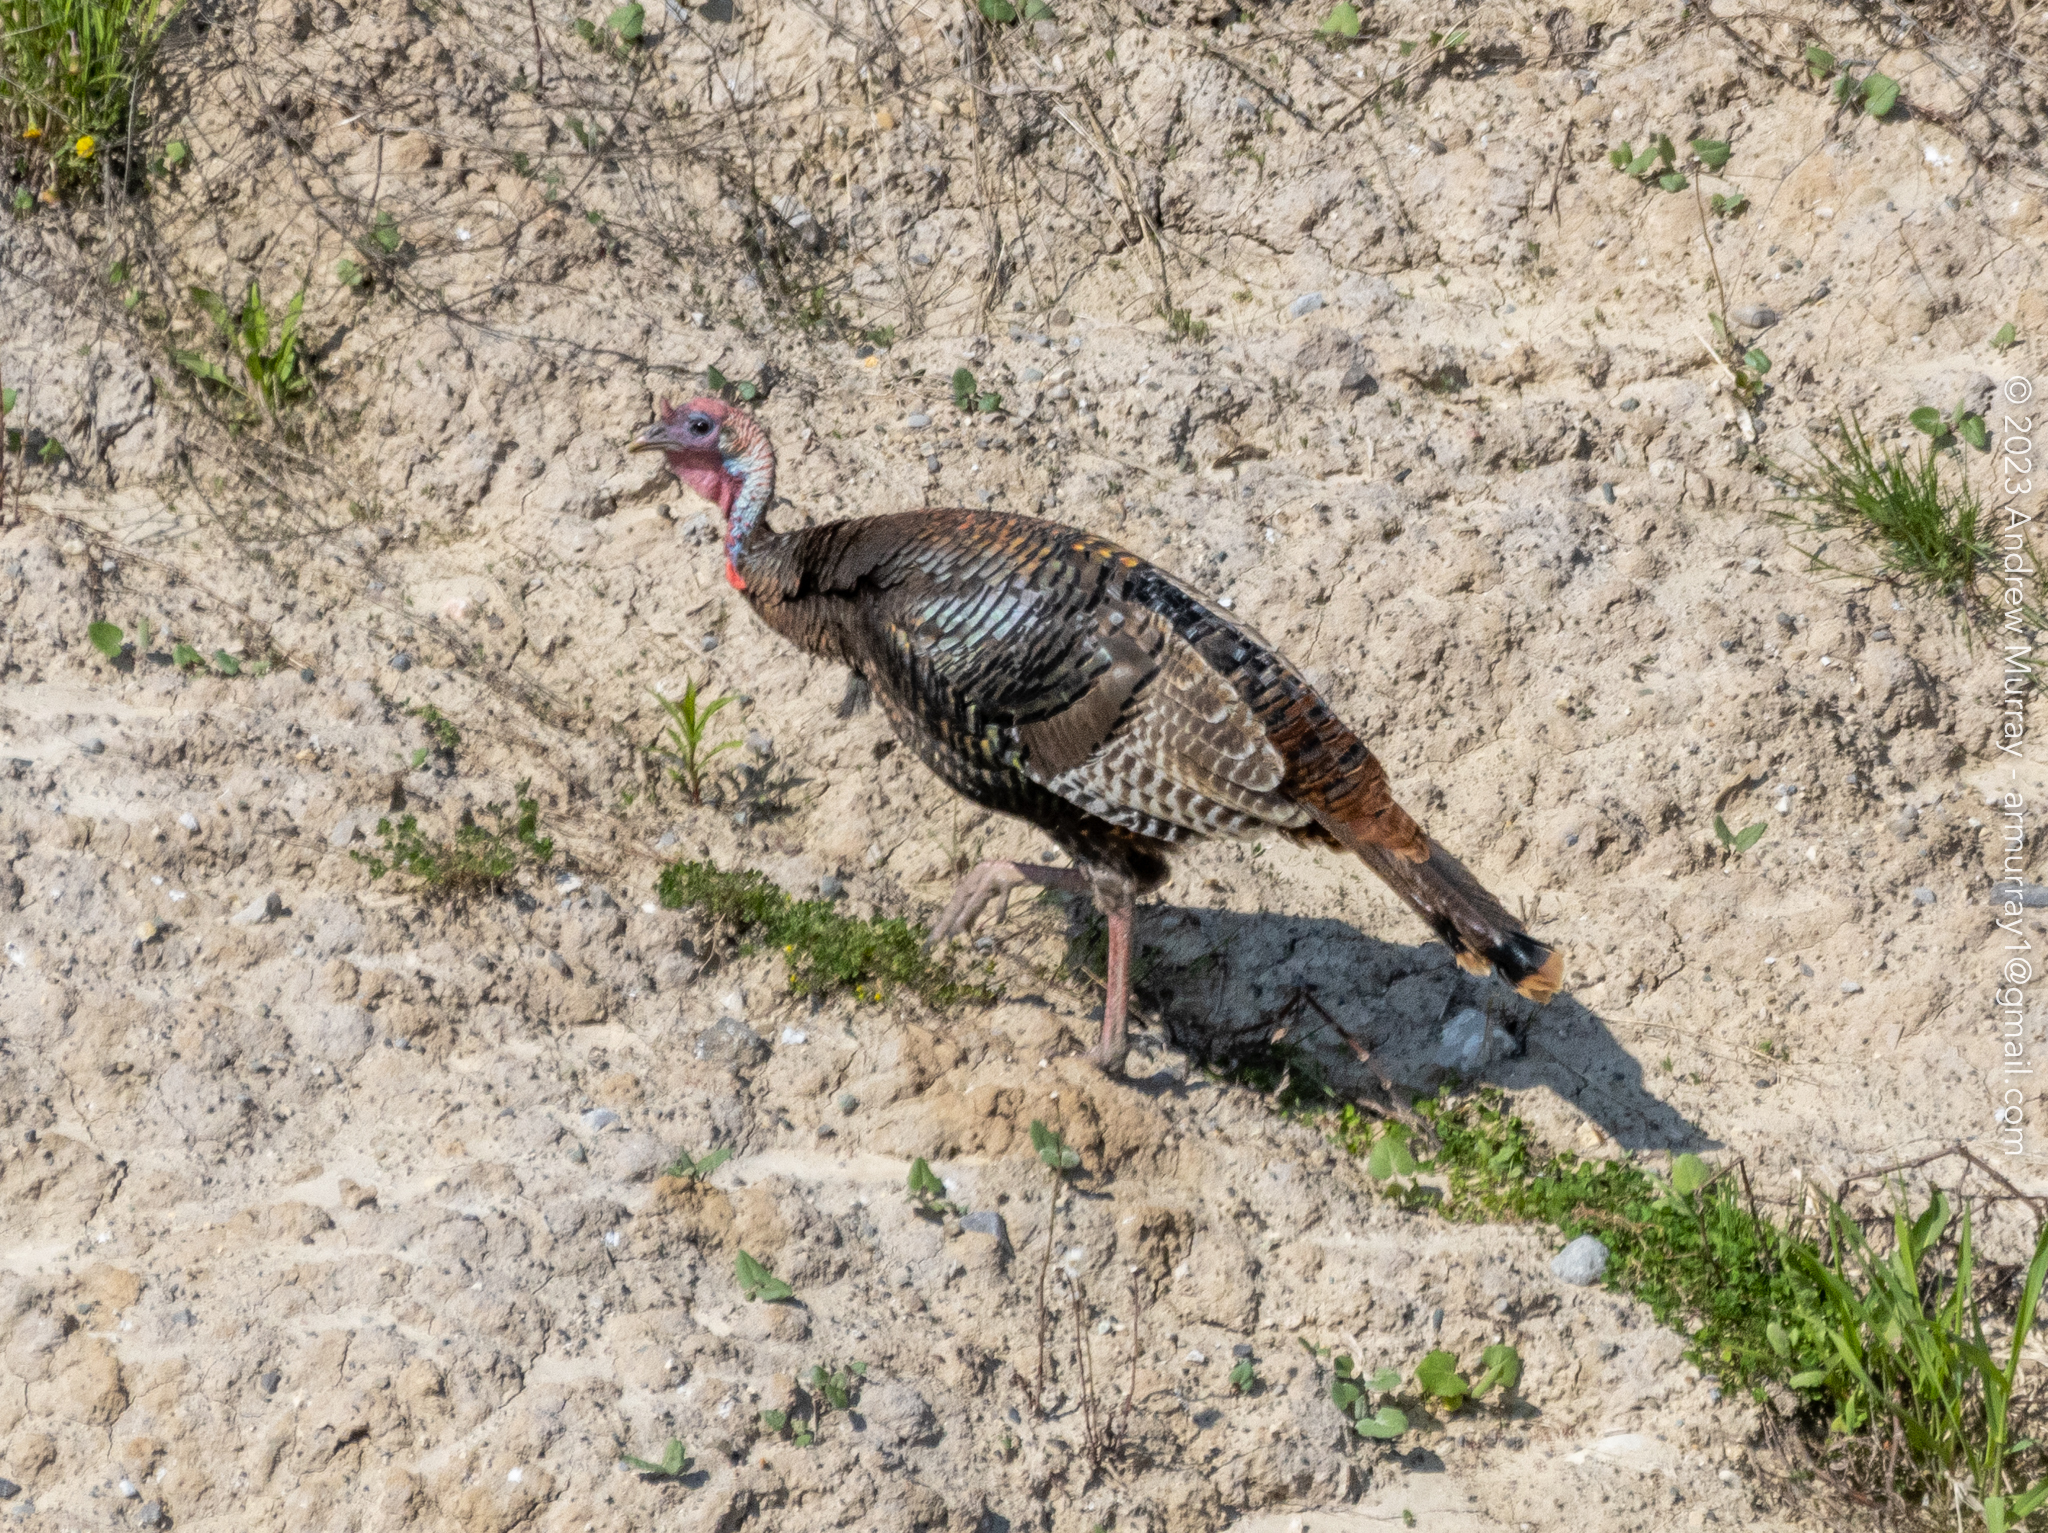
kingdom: Animalia
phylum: Chordata
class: Aves
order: Galliformes
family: Phasianidae
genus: Meleagris
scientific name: Meleagris gallopavo
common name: Wild turkey
